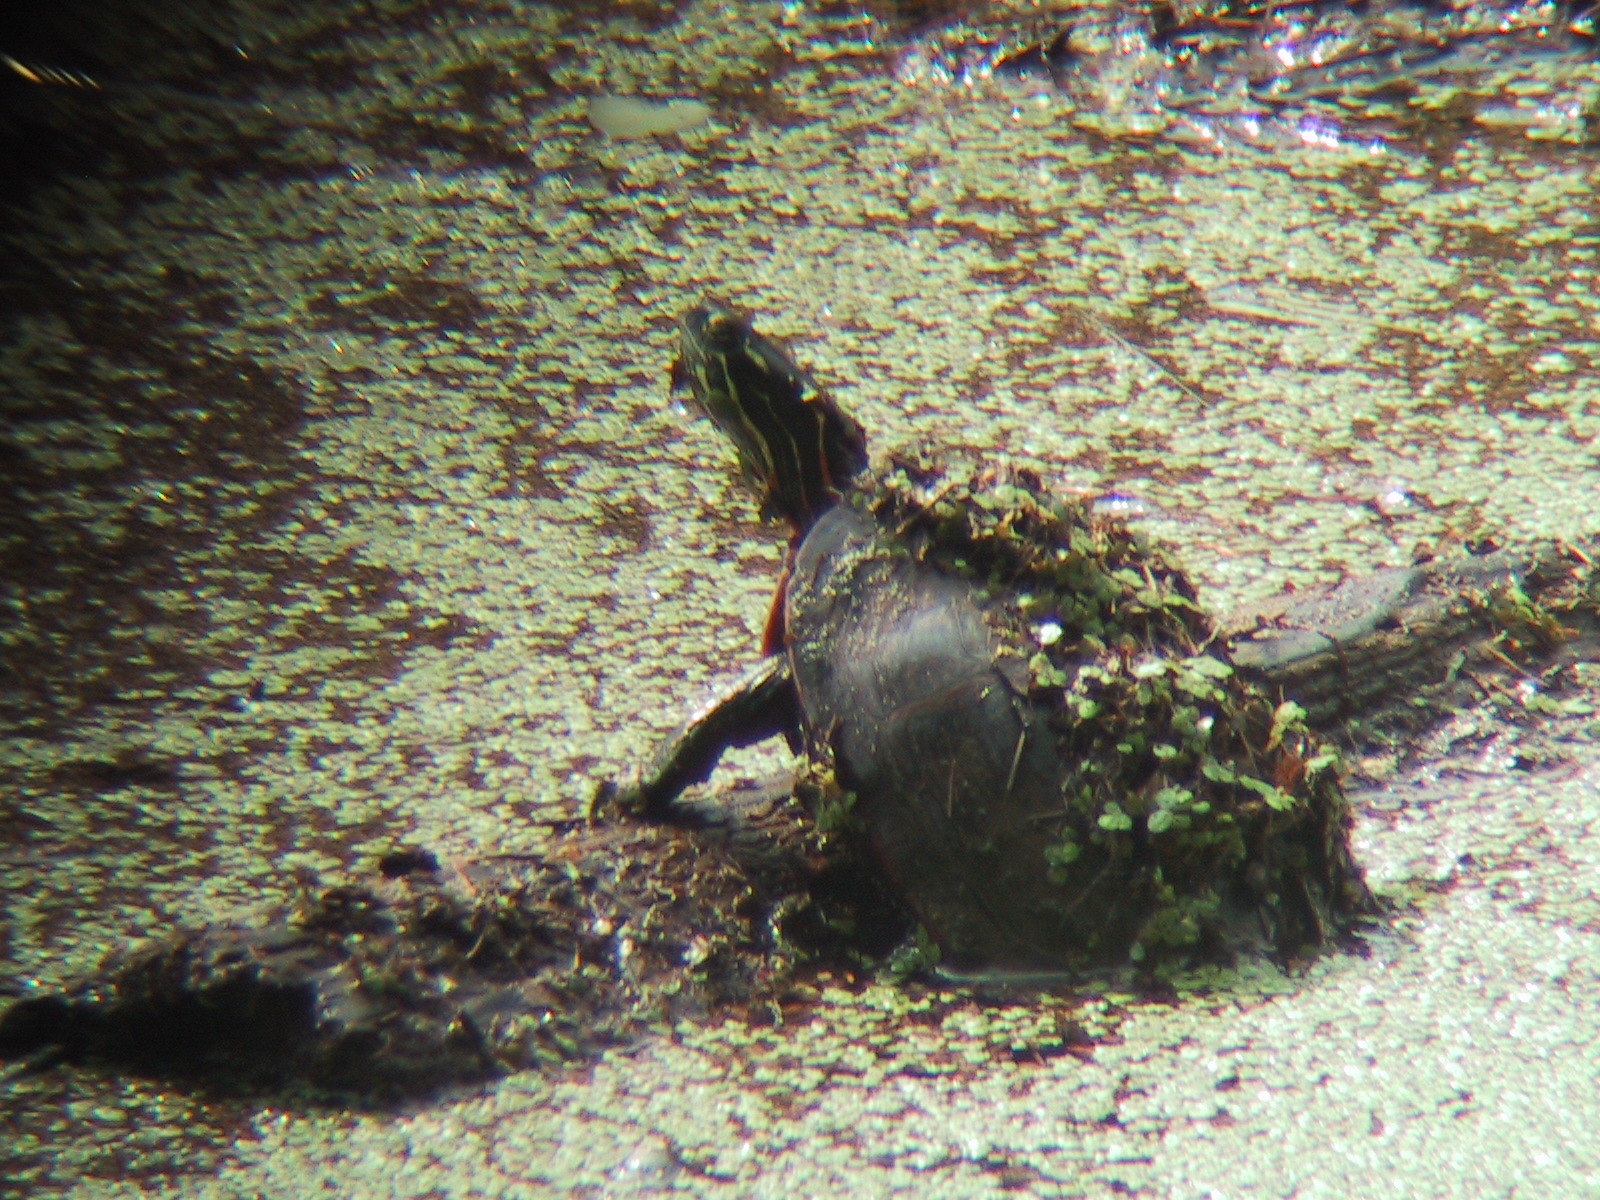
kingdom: Animalia
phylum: Chordata
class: Testudines
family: Emydidae
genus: Chrysemys
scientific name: Chrysemys picta
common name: Painted turtle
